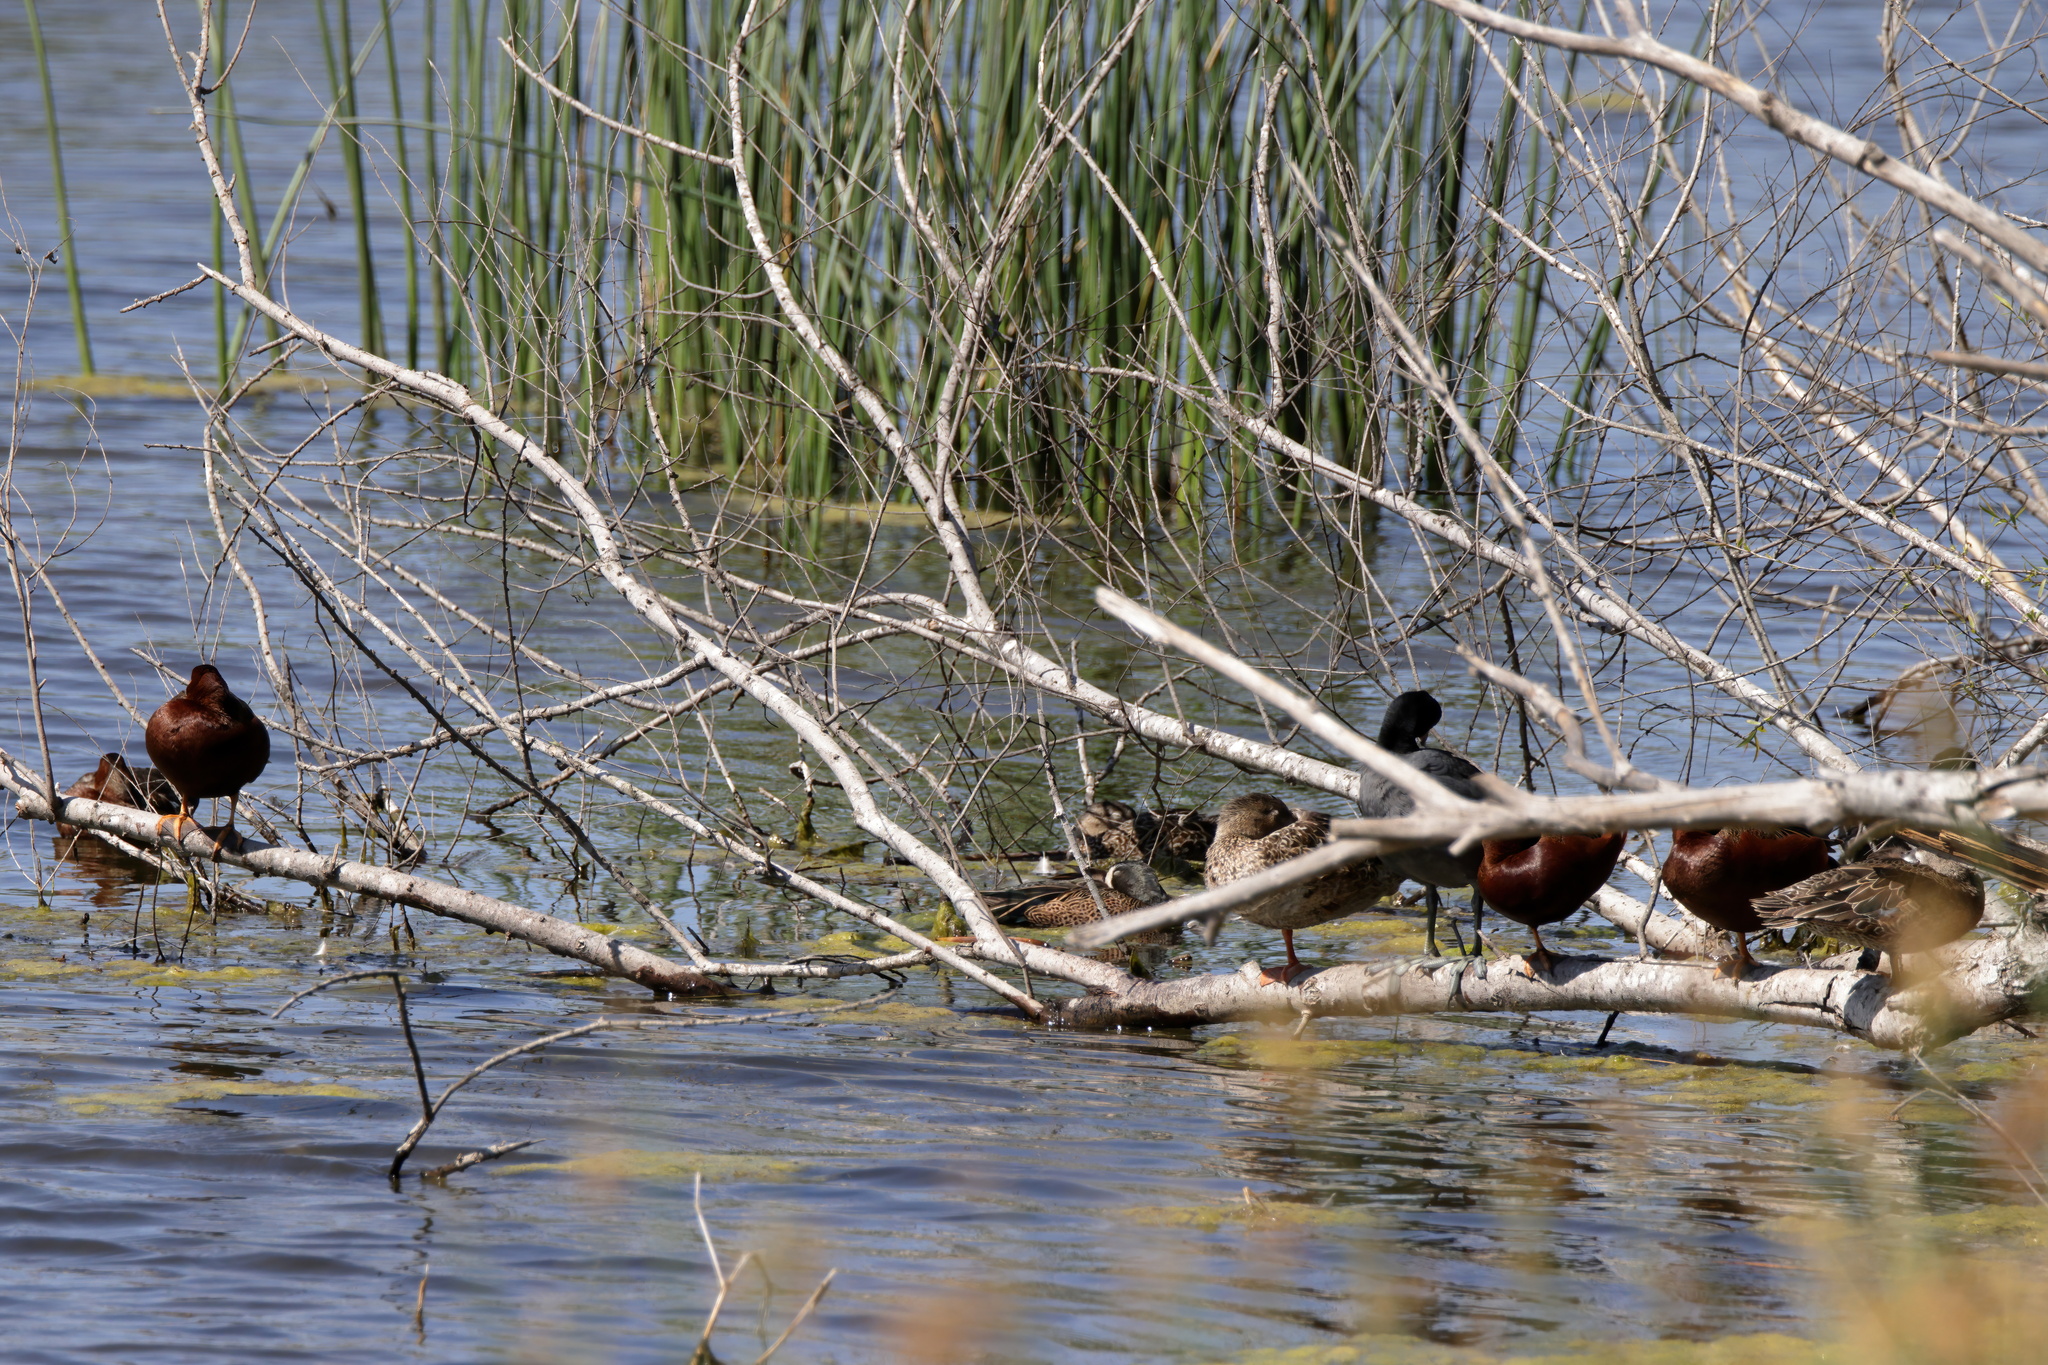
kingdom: Animalia
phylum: Chordata
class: Aves
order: Anseriformes
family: Anatidae
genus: Spatula
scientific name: Spatula cyanoptera
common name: Cinnamon teal
